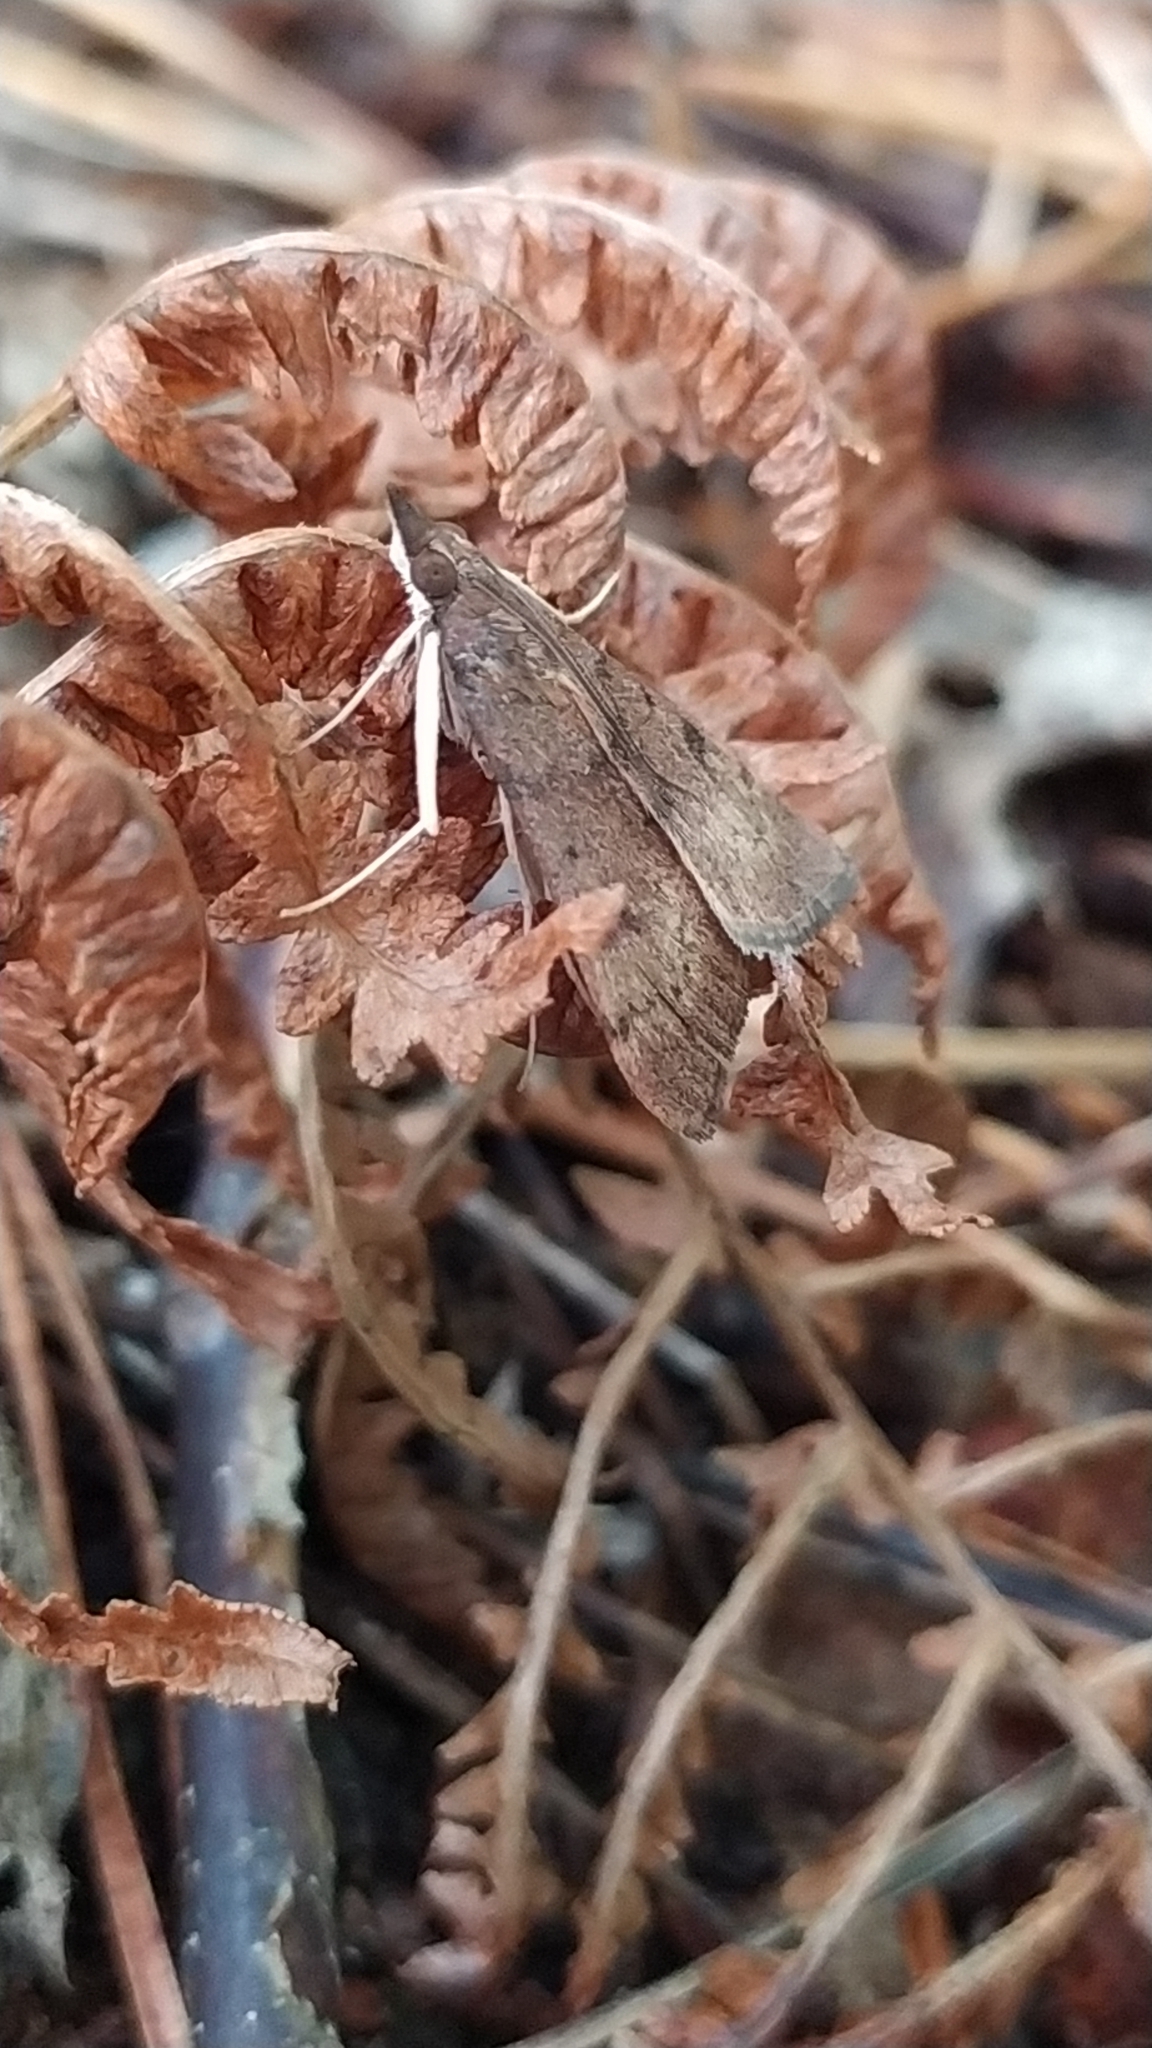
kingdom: Animalia
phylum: Arthropoda
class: Insecta
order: Lepidoptera
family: Crambidae
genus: Uresiphita
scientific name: Uresiphita gilvata
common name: Yellow-underwing pearl
